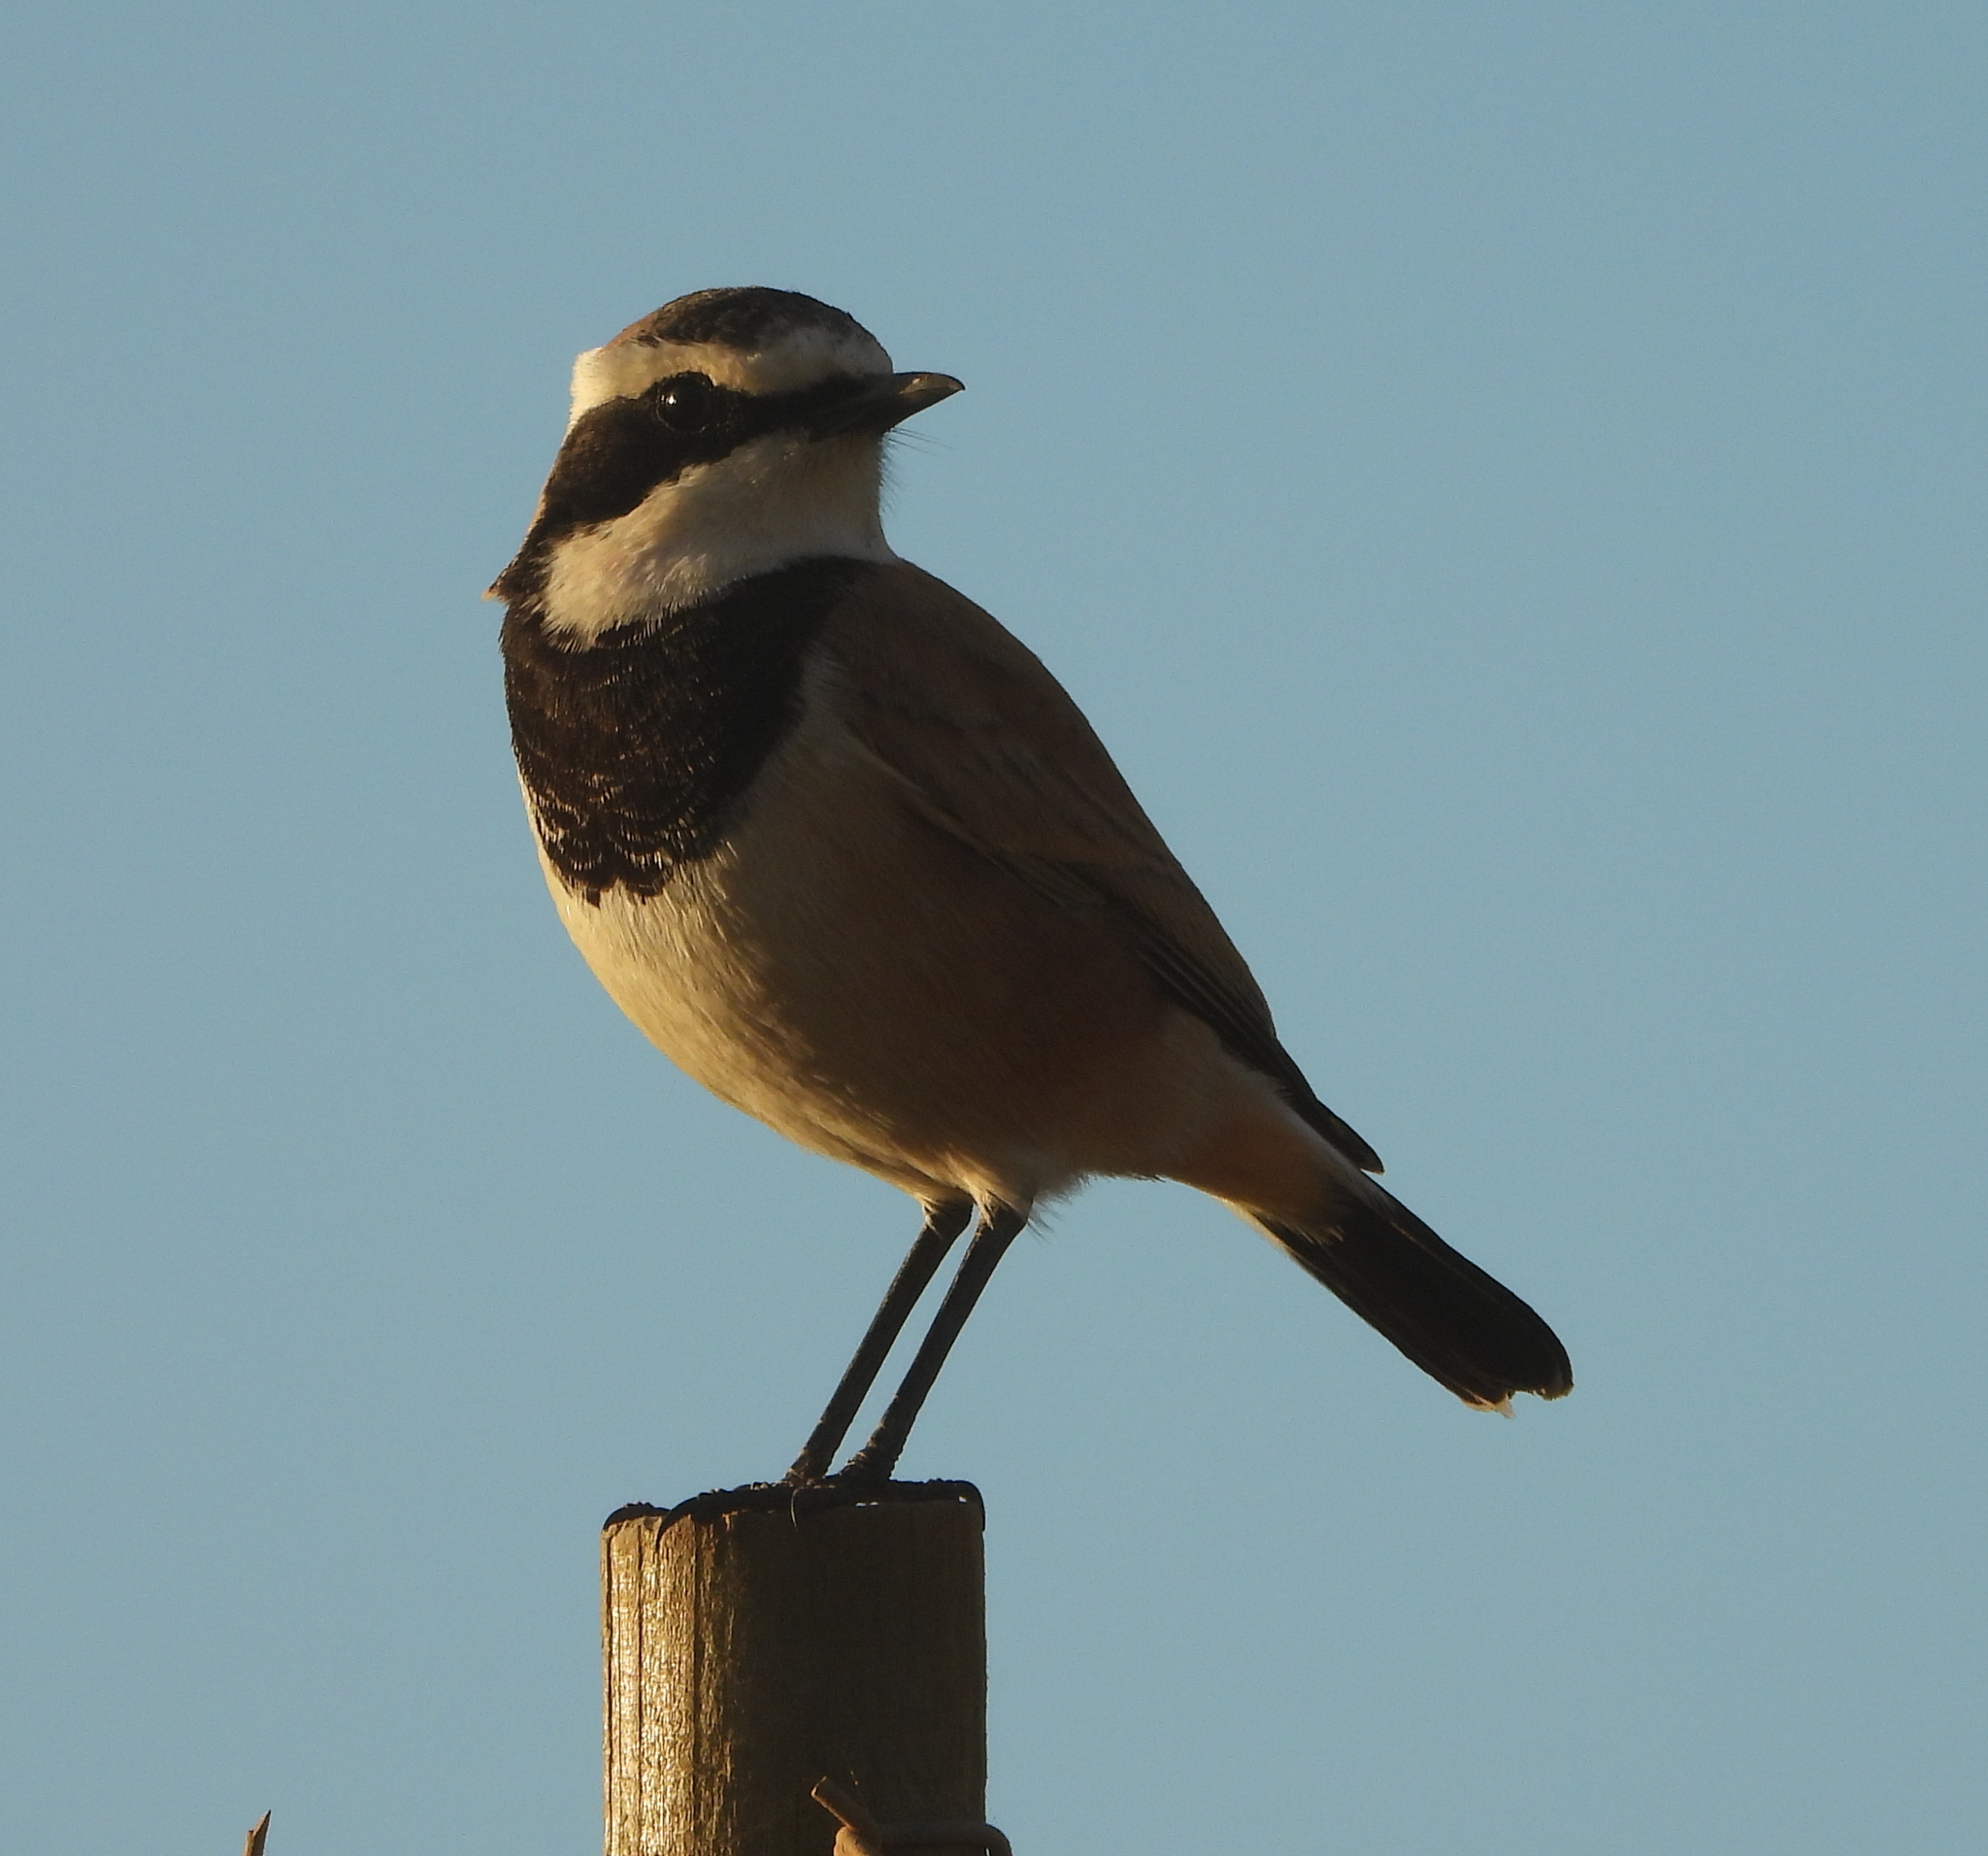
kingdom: Animalia
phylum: Chordata
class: Aves
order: Passeriformes
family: Muscicapidae
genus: Oenanthe
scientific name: Oenanthe pileata
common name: Capped wheatear
